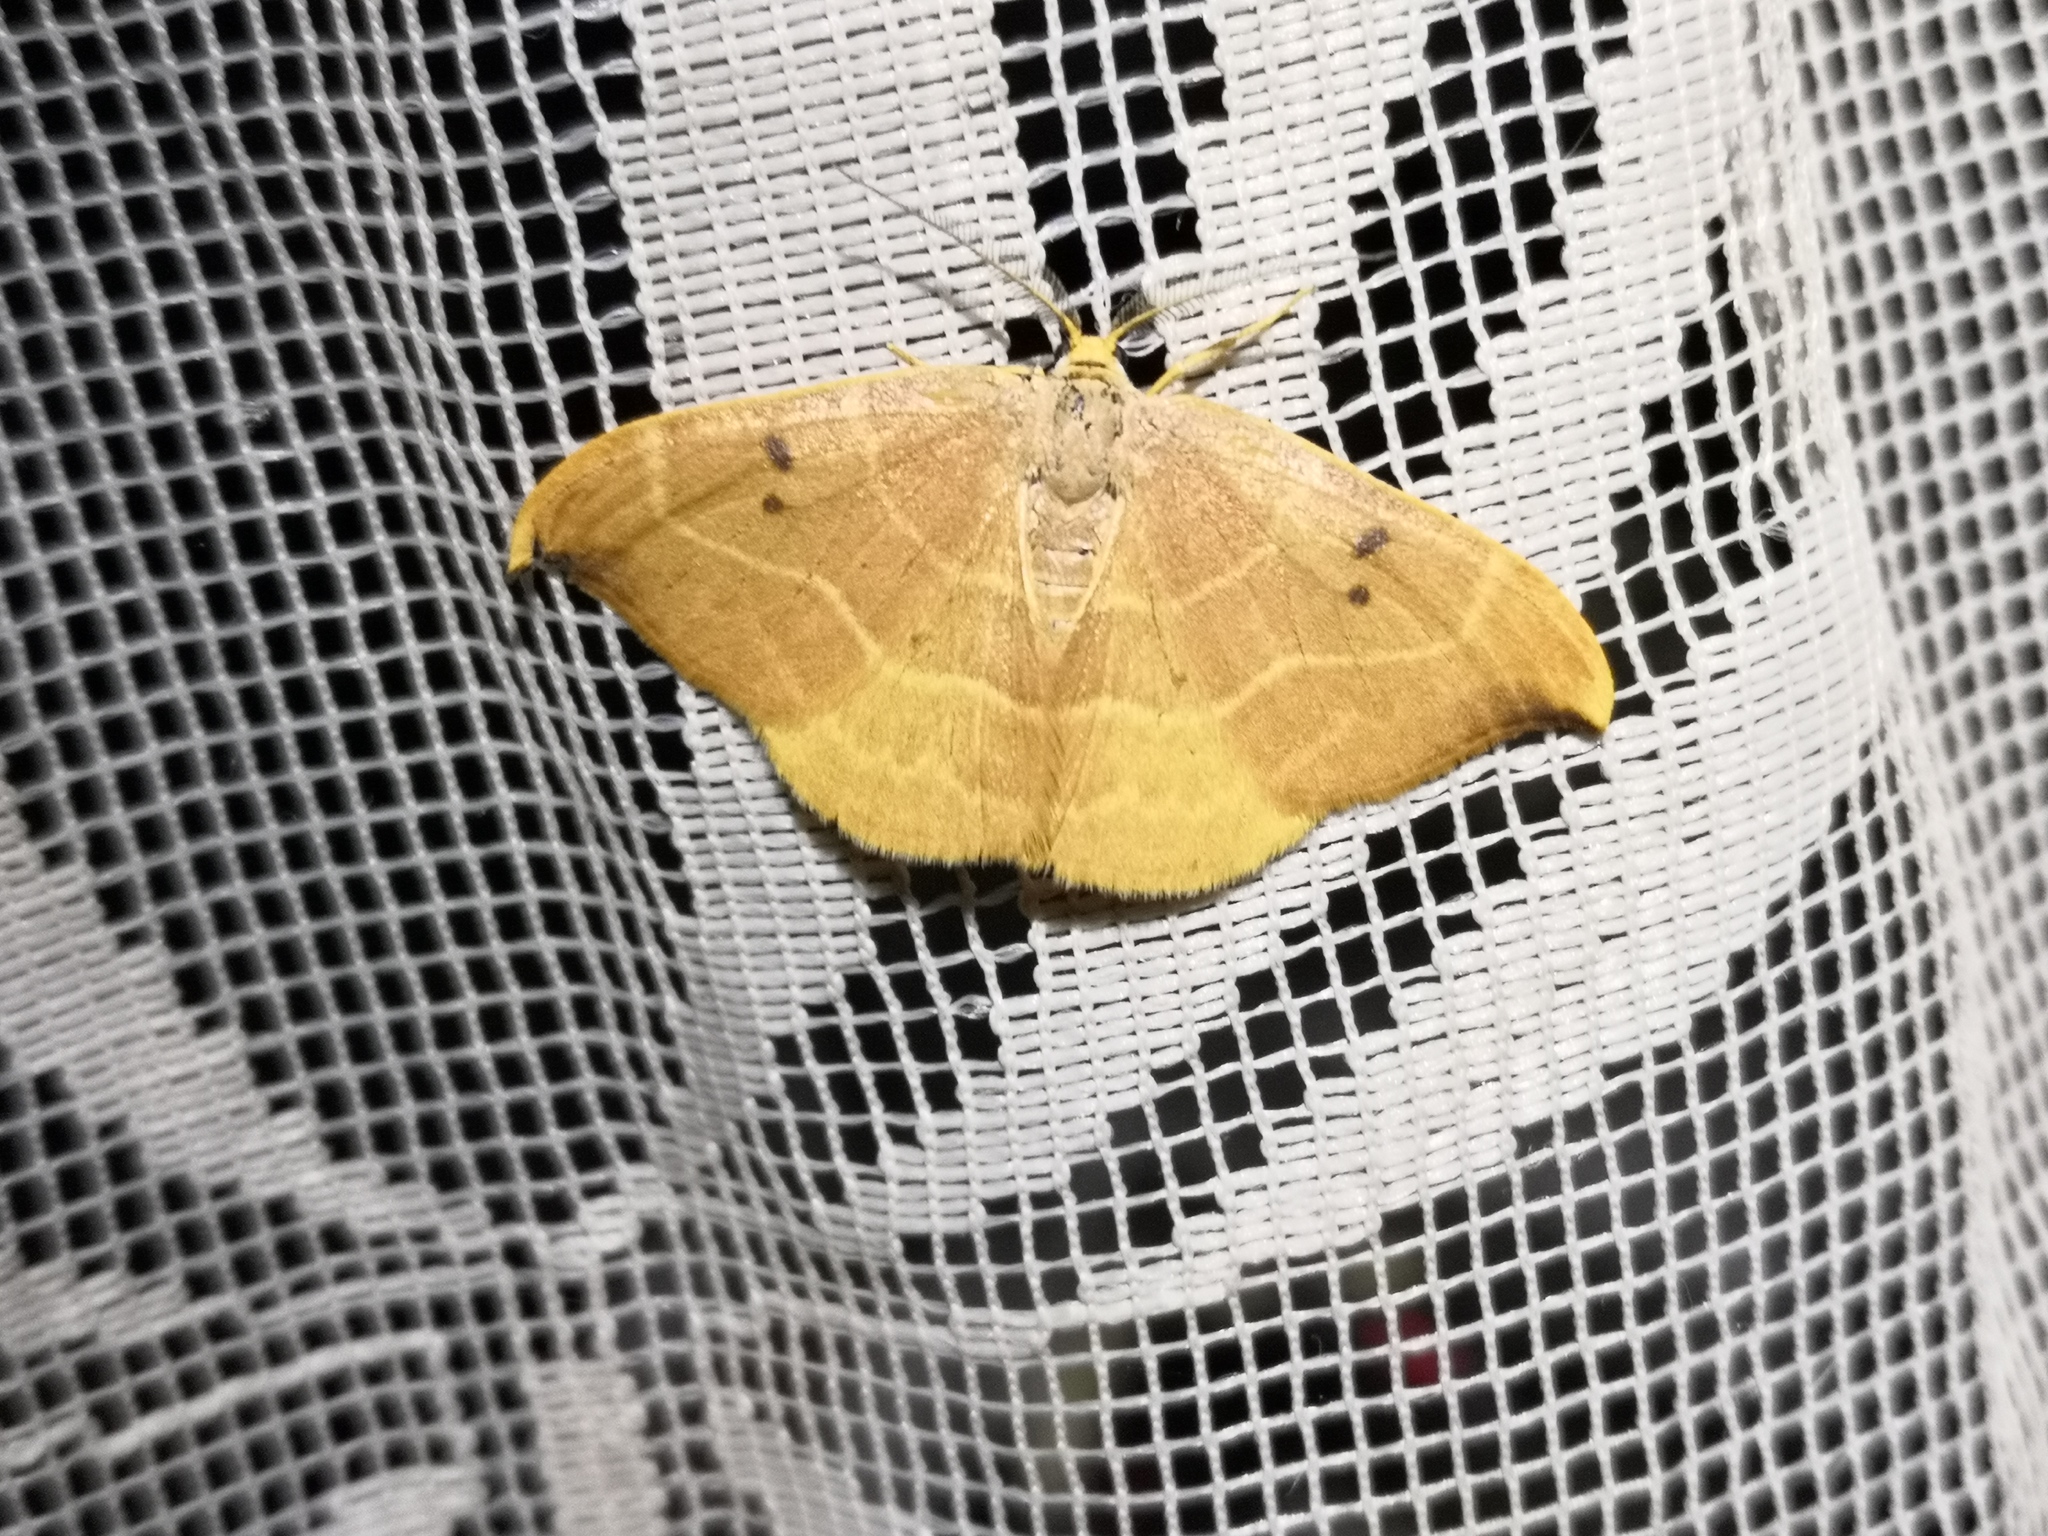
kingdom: Animalia
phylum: Arthropoda
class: Insecta
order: Lepidoptera
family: Drepanidae
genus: Watsonalla
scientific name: Watsonalla binaria
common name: Oak hook-tip
